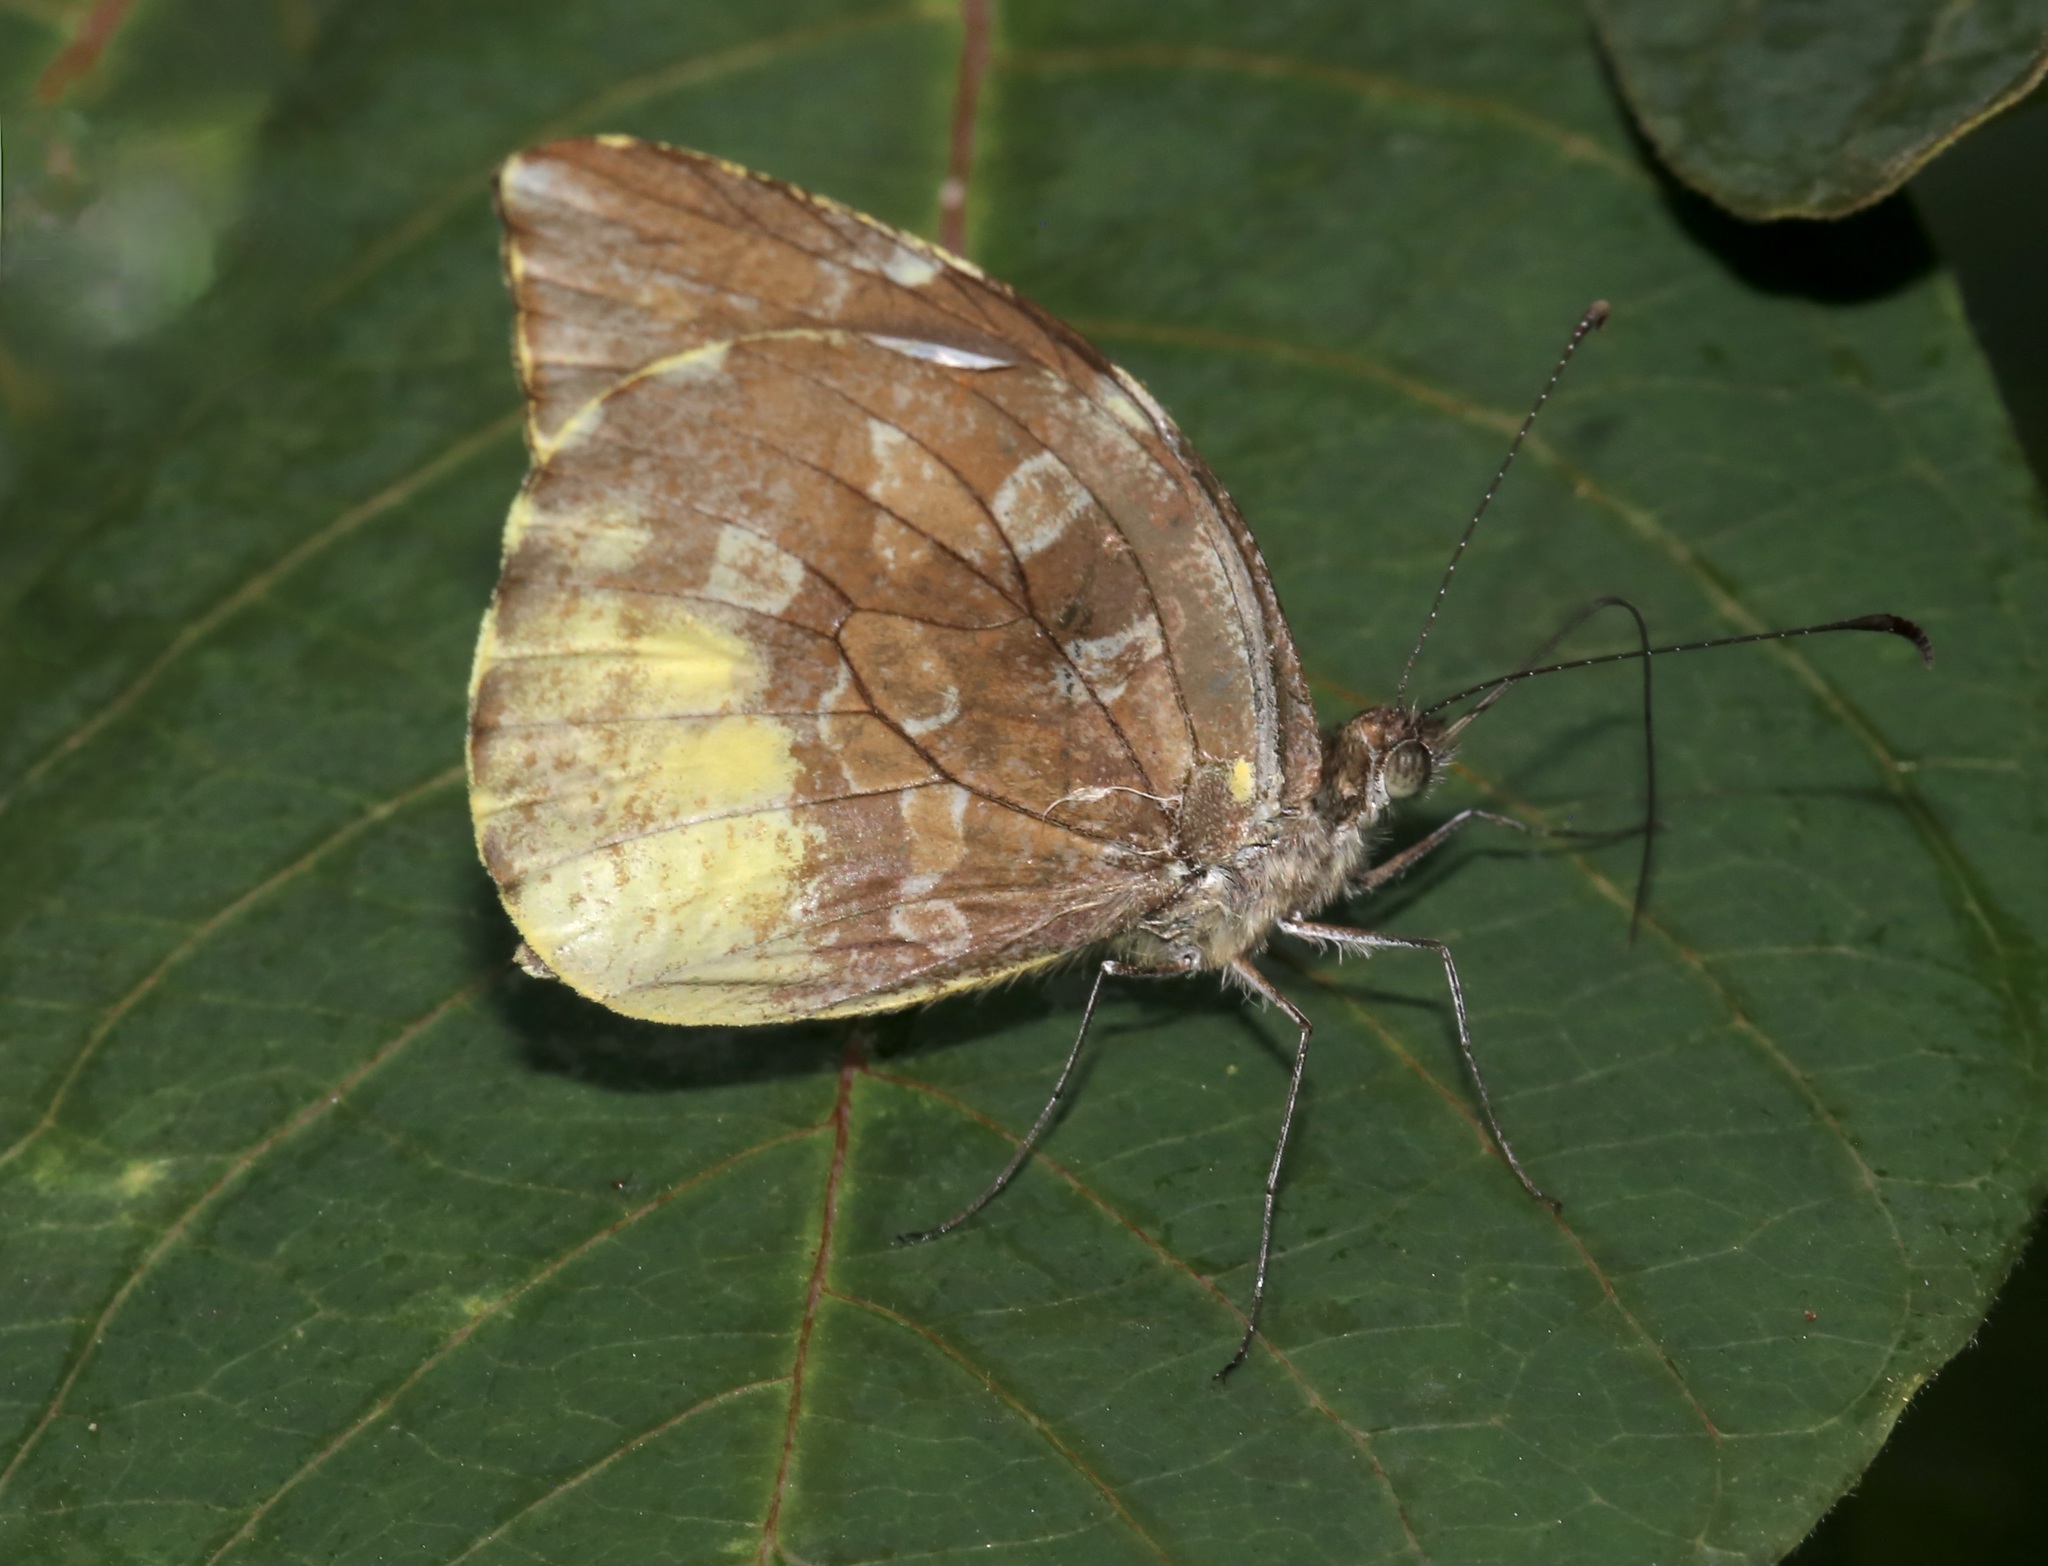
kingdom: Animalia
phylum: Arthropoda
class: Insecta
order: Lepidoptera
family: Pieridae
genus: Lieinix
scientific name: Lieinix nemesis
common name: Frosted mimic-white
